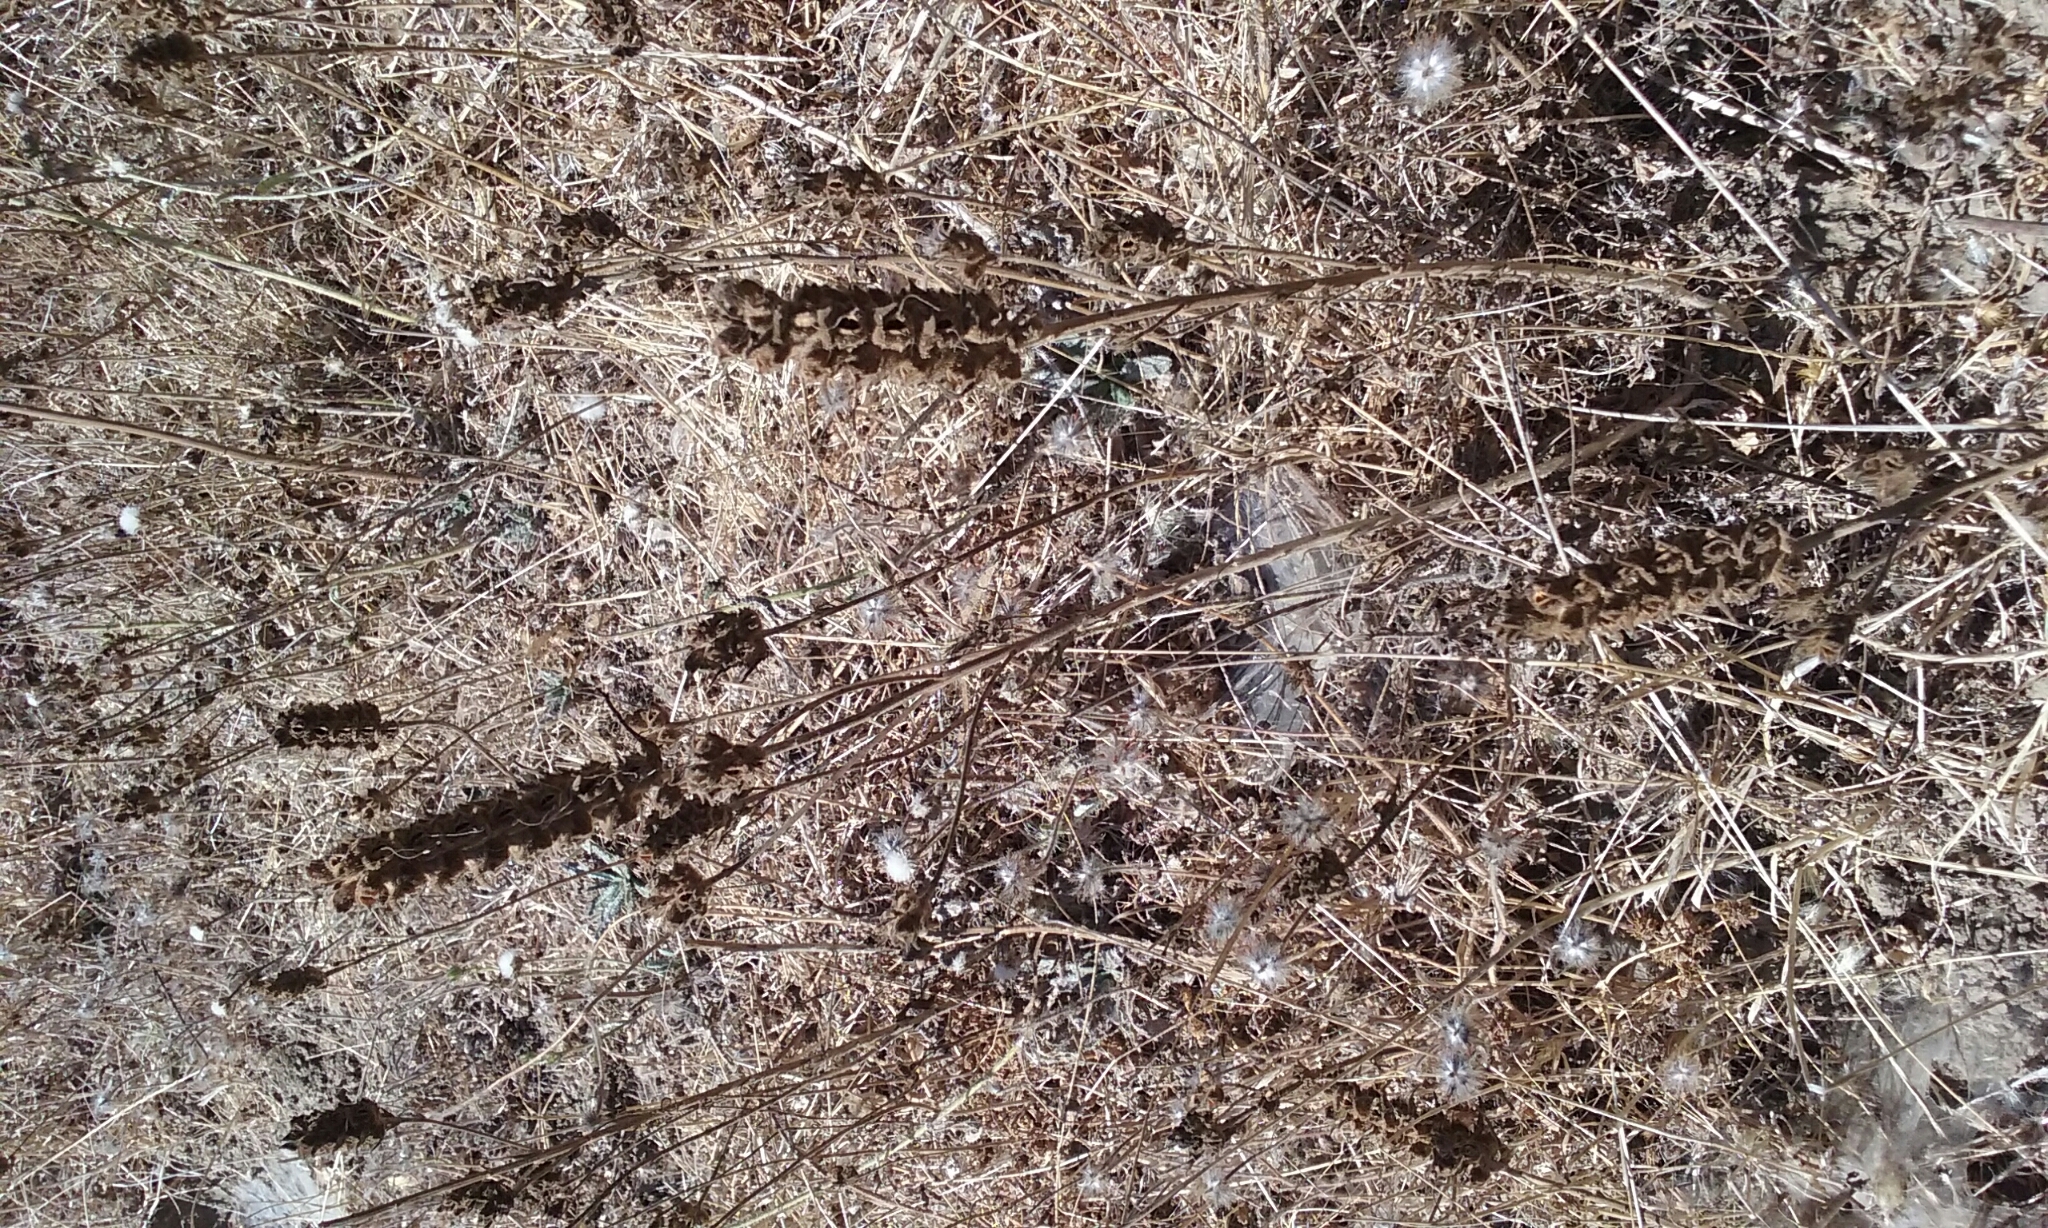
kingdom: Plantae
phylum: Tracheophyta
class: Magnoliopsida
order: Lamiales
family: Orobanchaceae
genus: Bellardia
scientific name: Bellardia trixago
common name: Mediterranean lineseed
